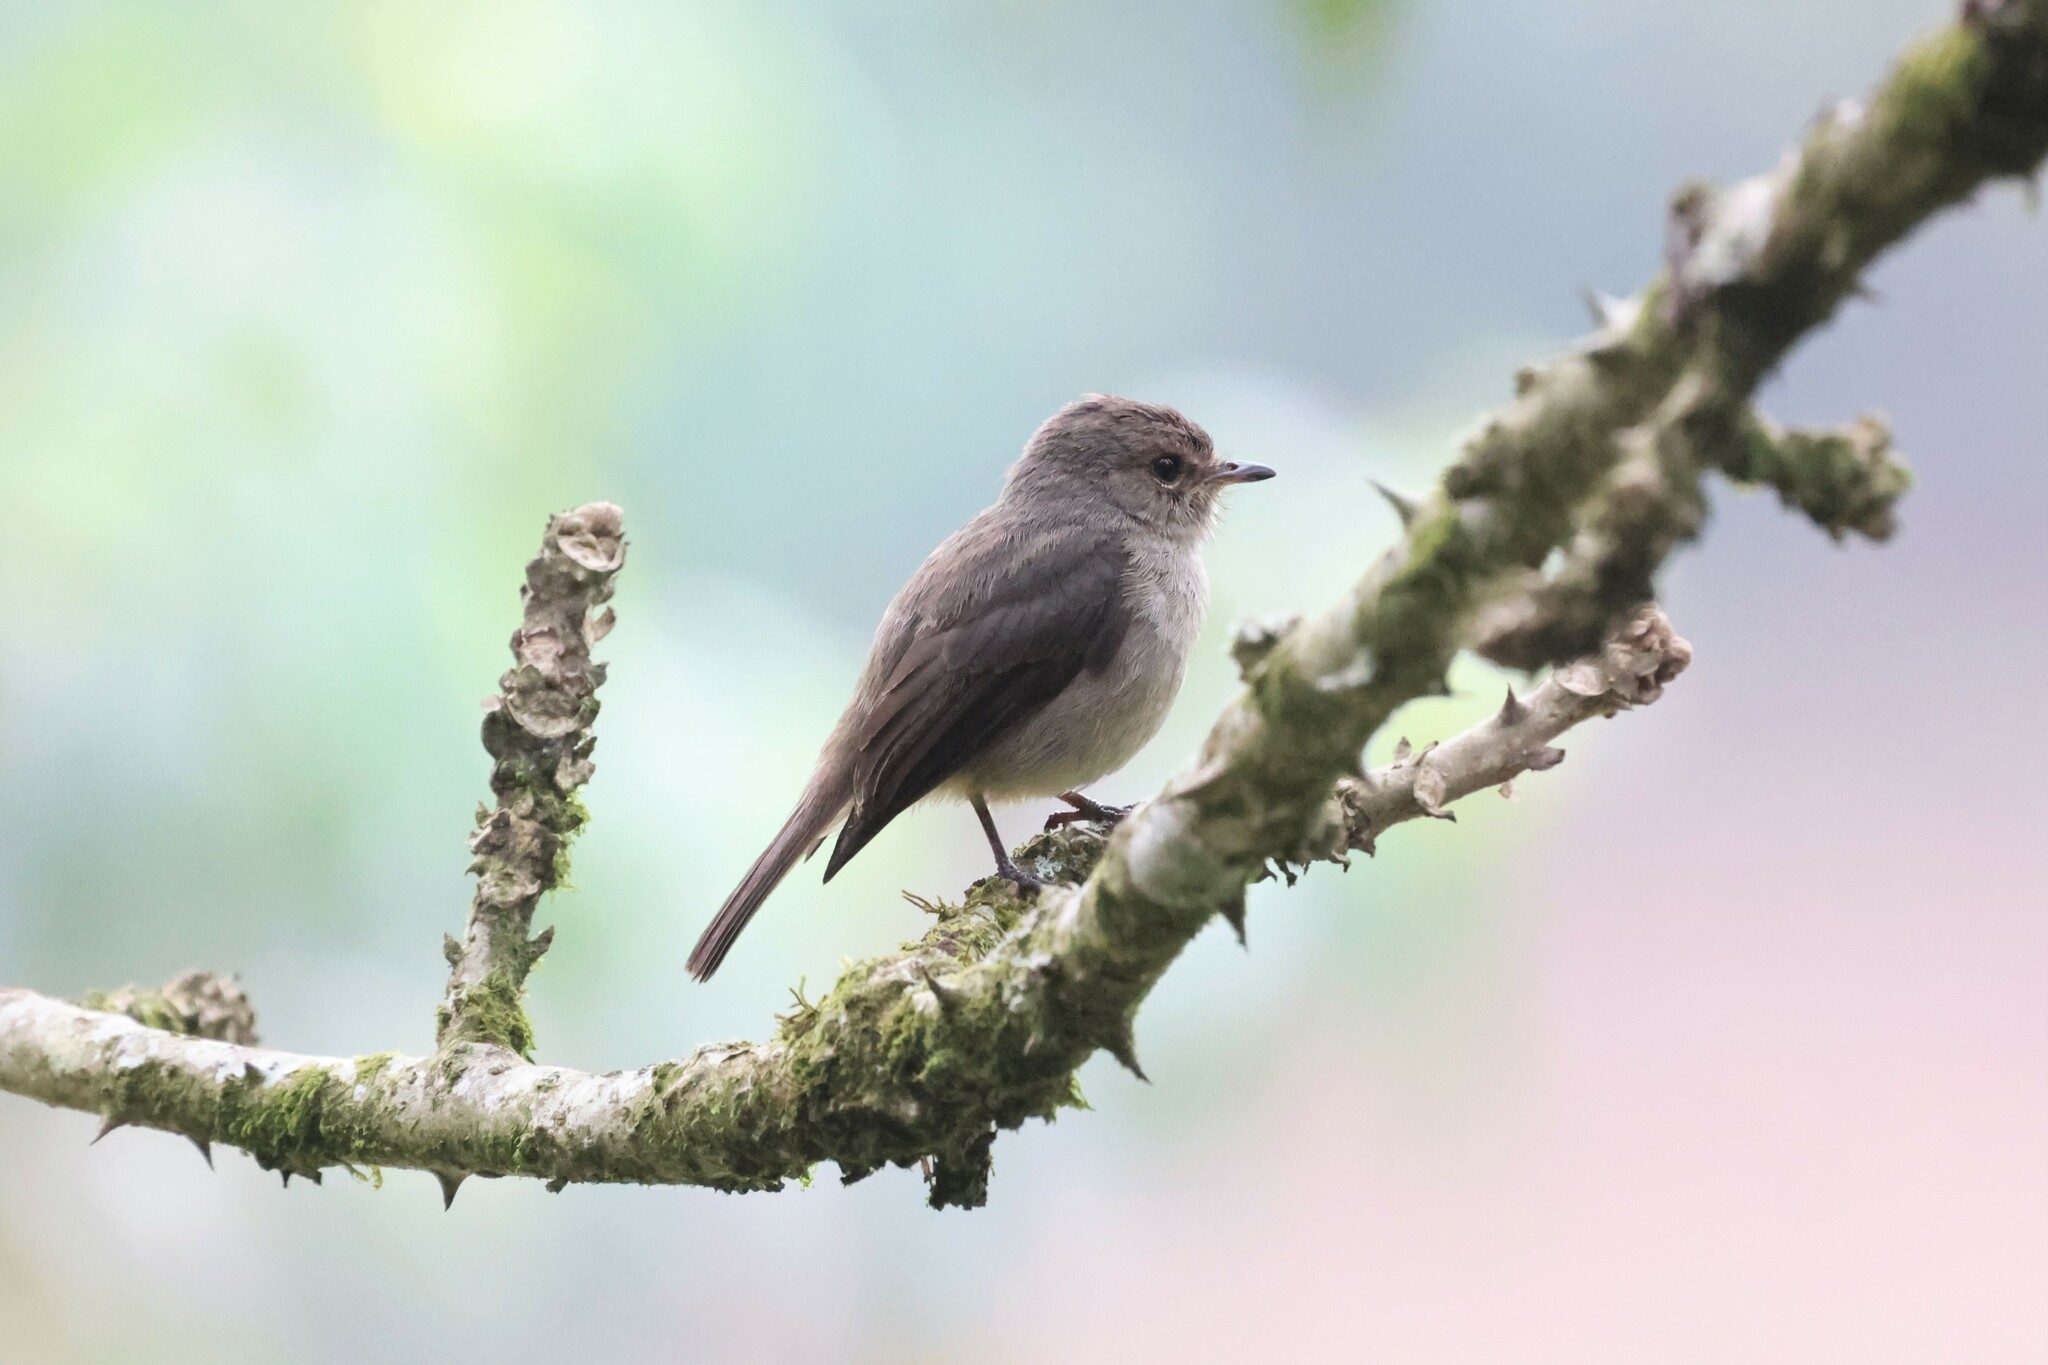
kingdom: Animalia
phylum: Chordata
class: Aves
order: Passeriformes
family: Muscicapidae
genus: Muscicapa
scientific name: Muscicapa adusta
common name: African dusky flycatcher
